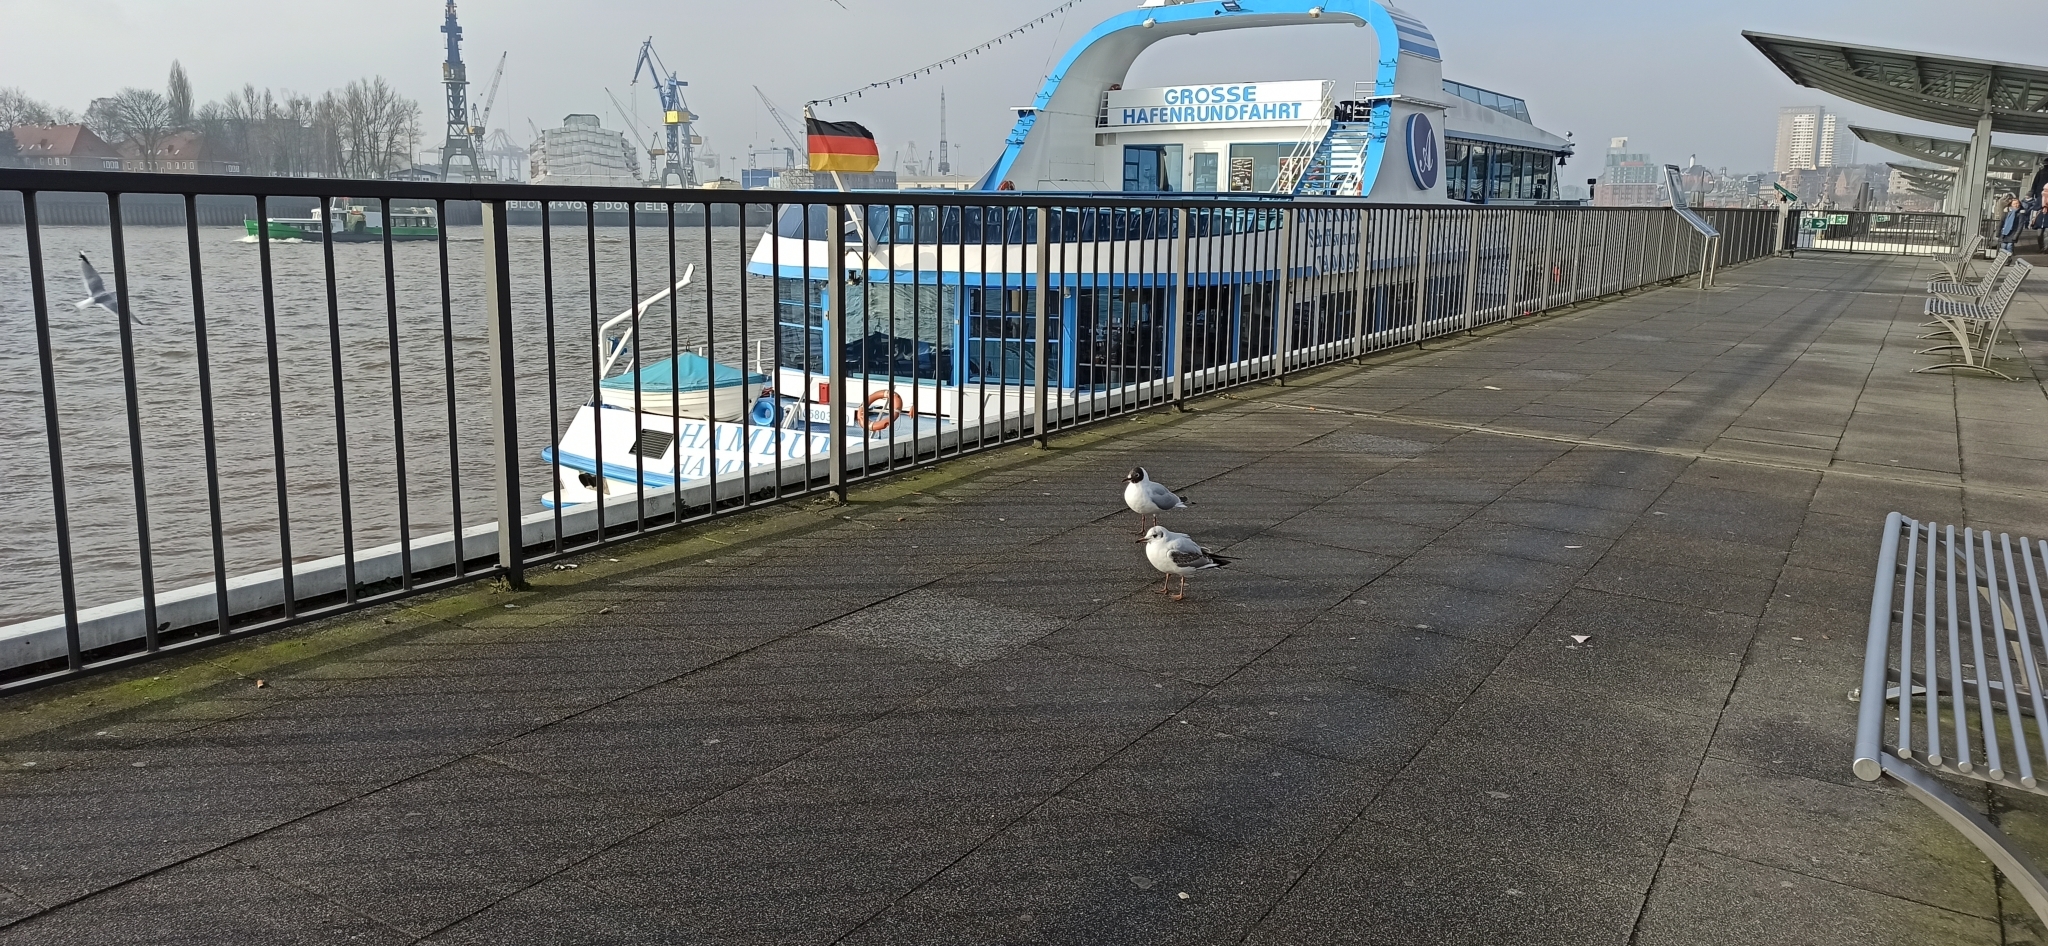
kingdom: Animalia
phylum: Chordata
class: Aves
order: Charadriiformes
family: Laridae
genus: Chroicocephalus
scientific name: Chroicocephalus ridibundus
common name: Black-headed gull
